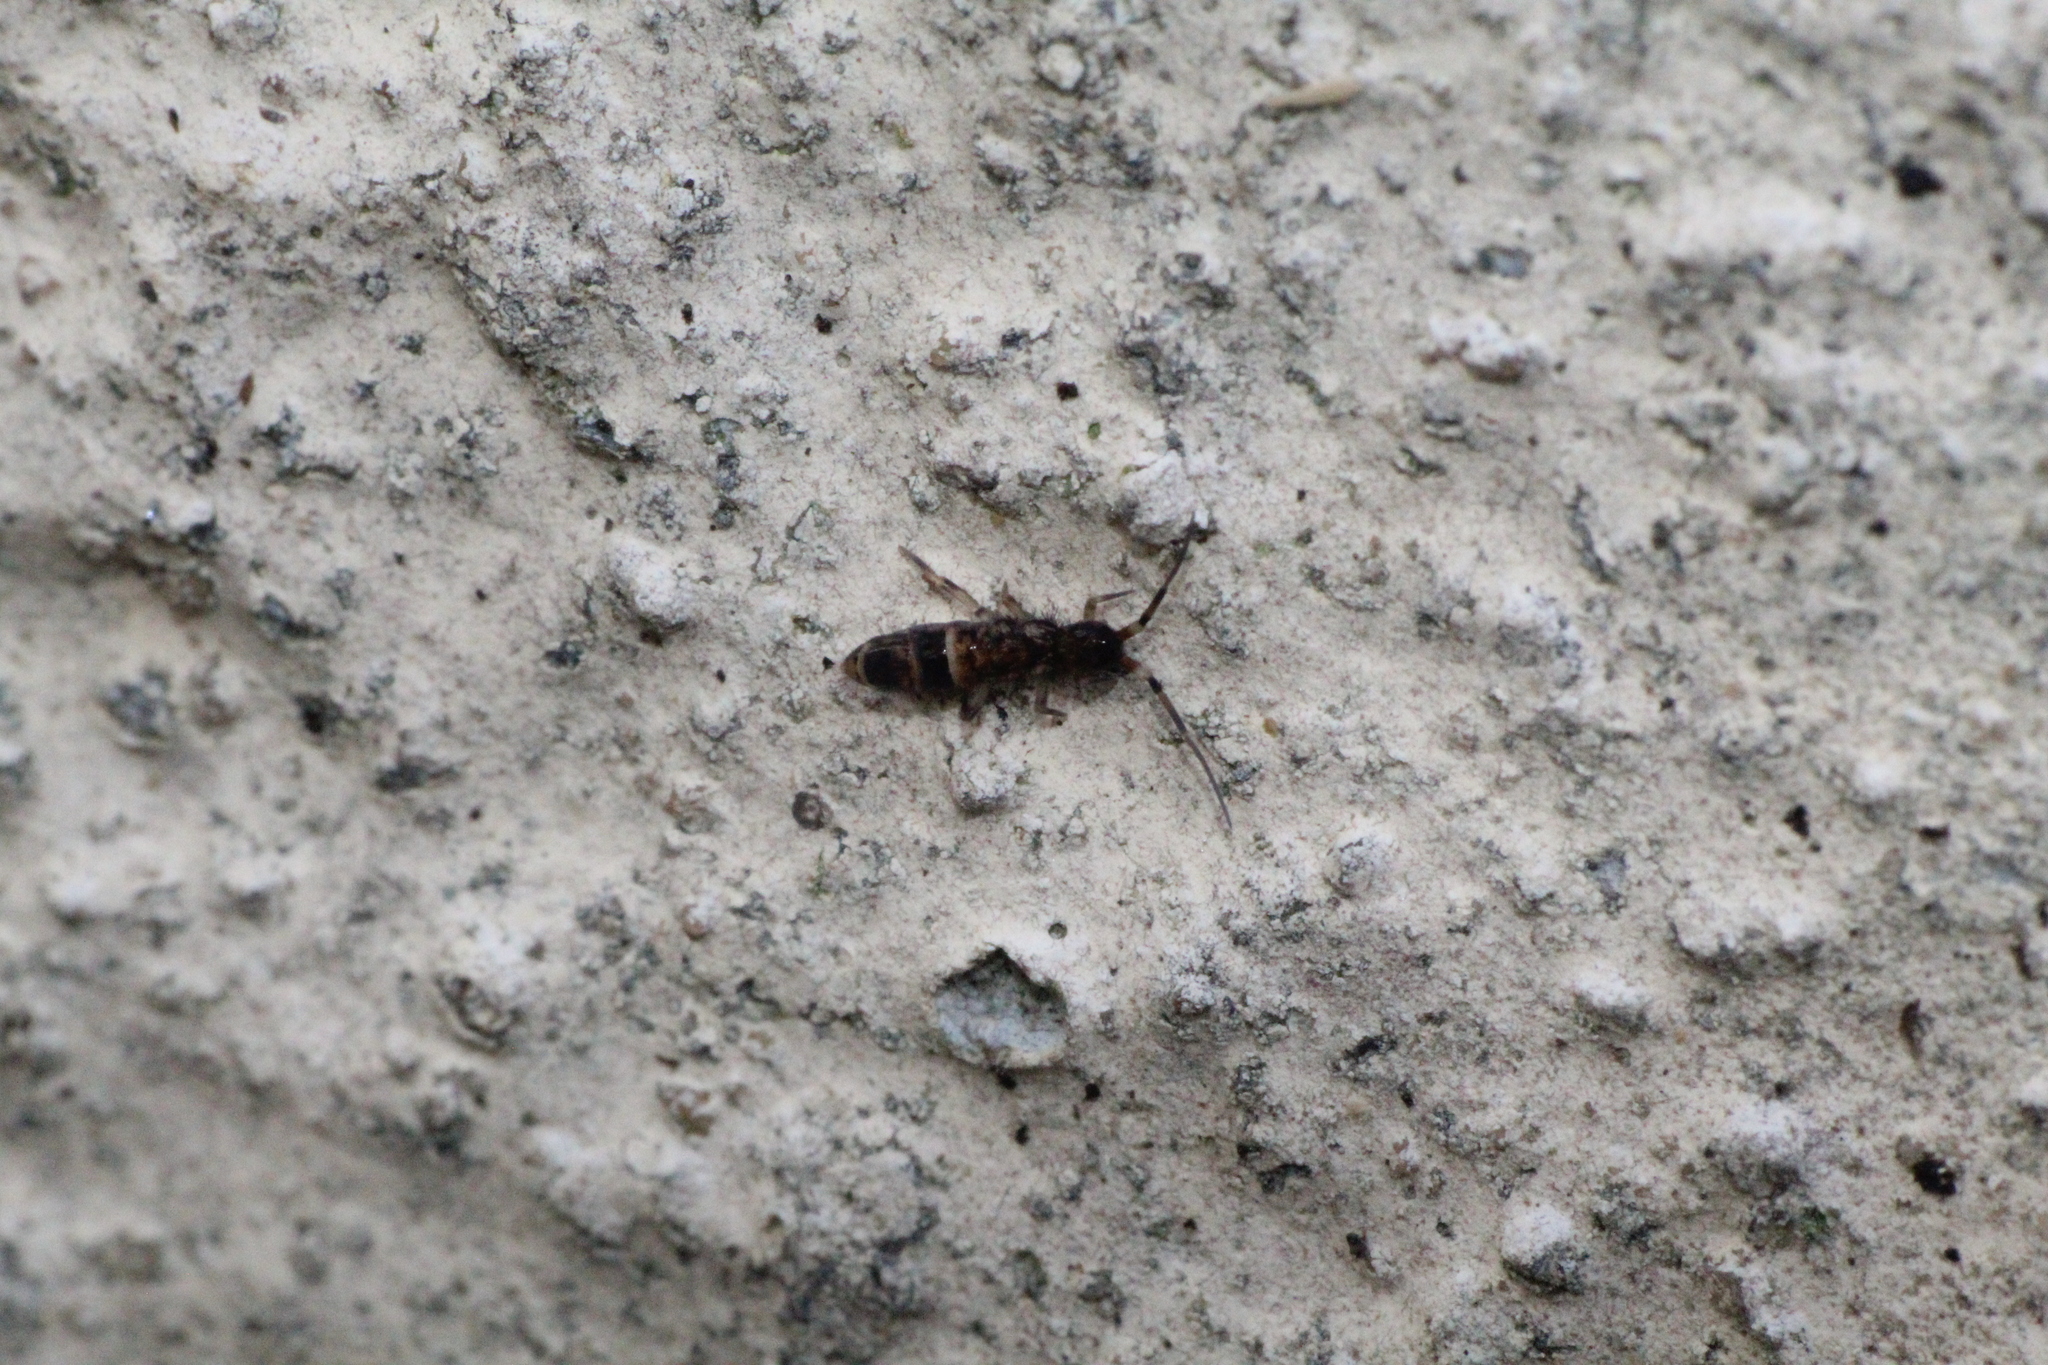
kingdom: Animalia
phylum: Arthropoda
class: Collembola
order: Entomobryomorpha
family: Orchesellidae
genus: Orchesella
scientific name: Orchesella cincta
